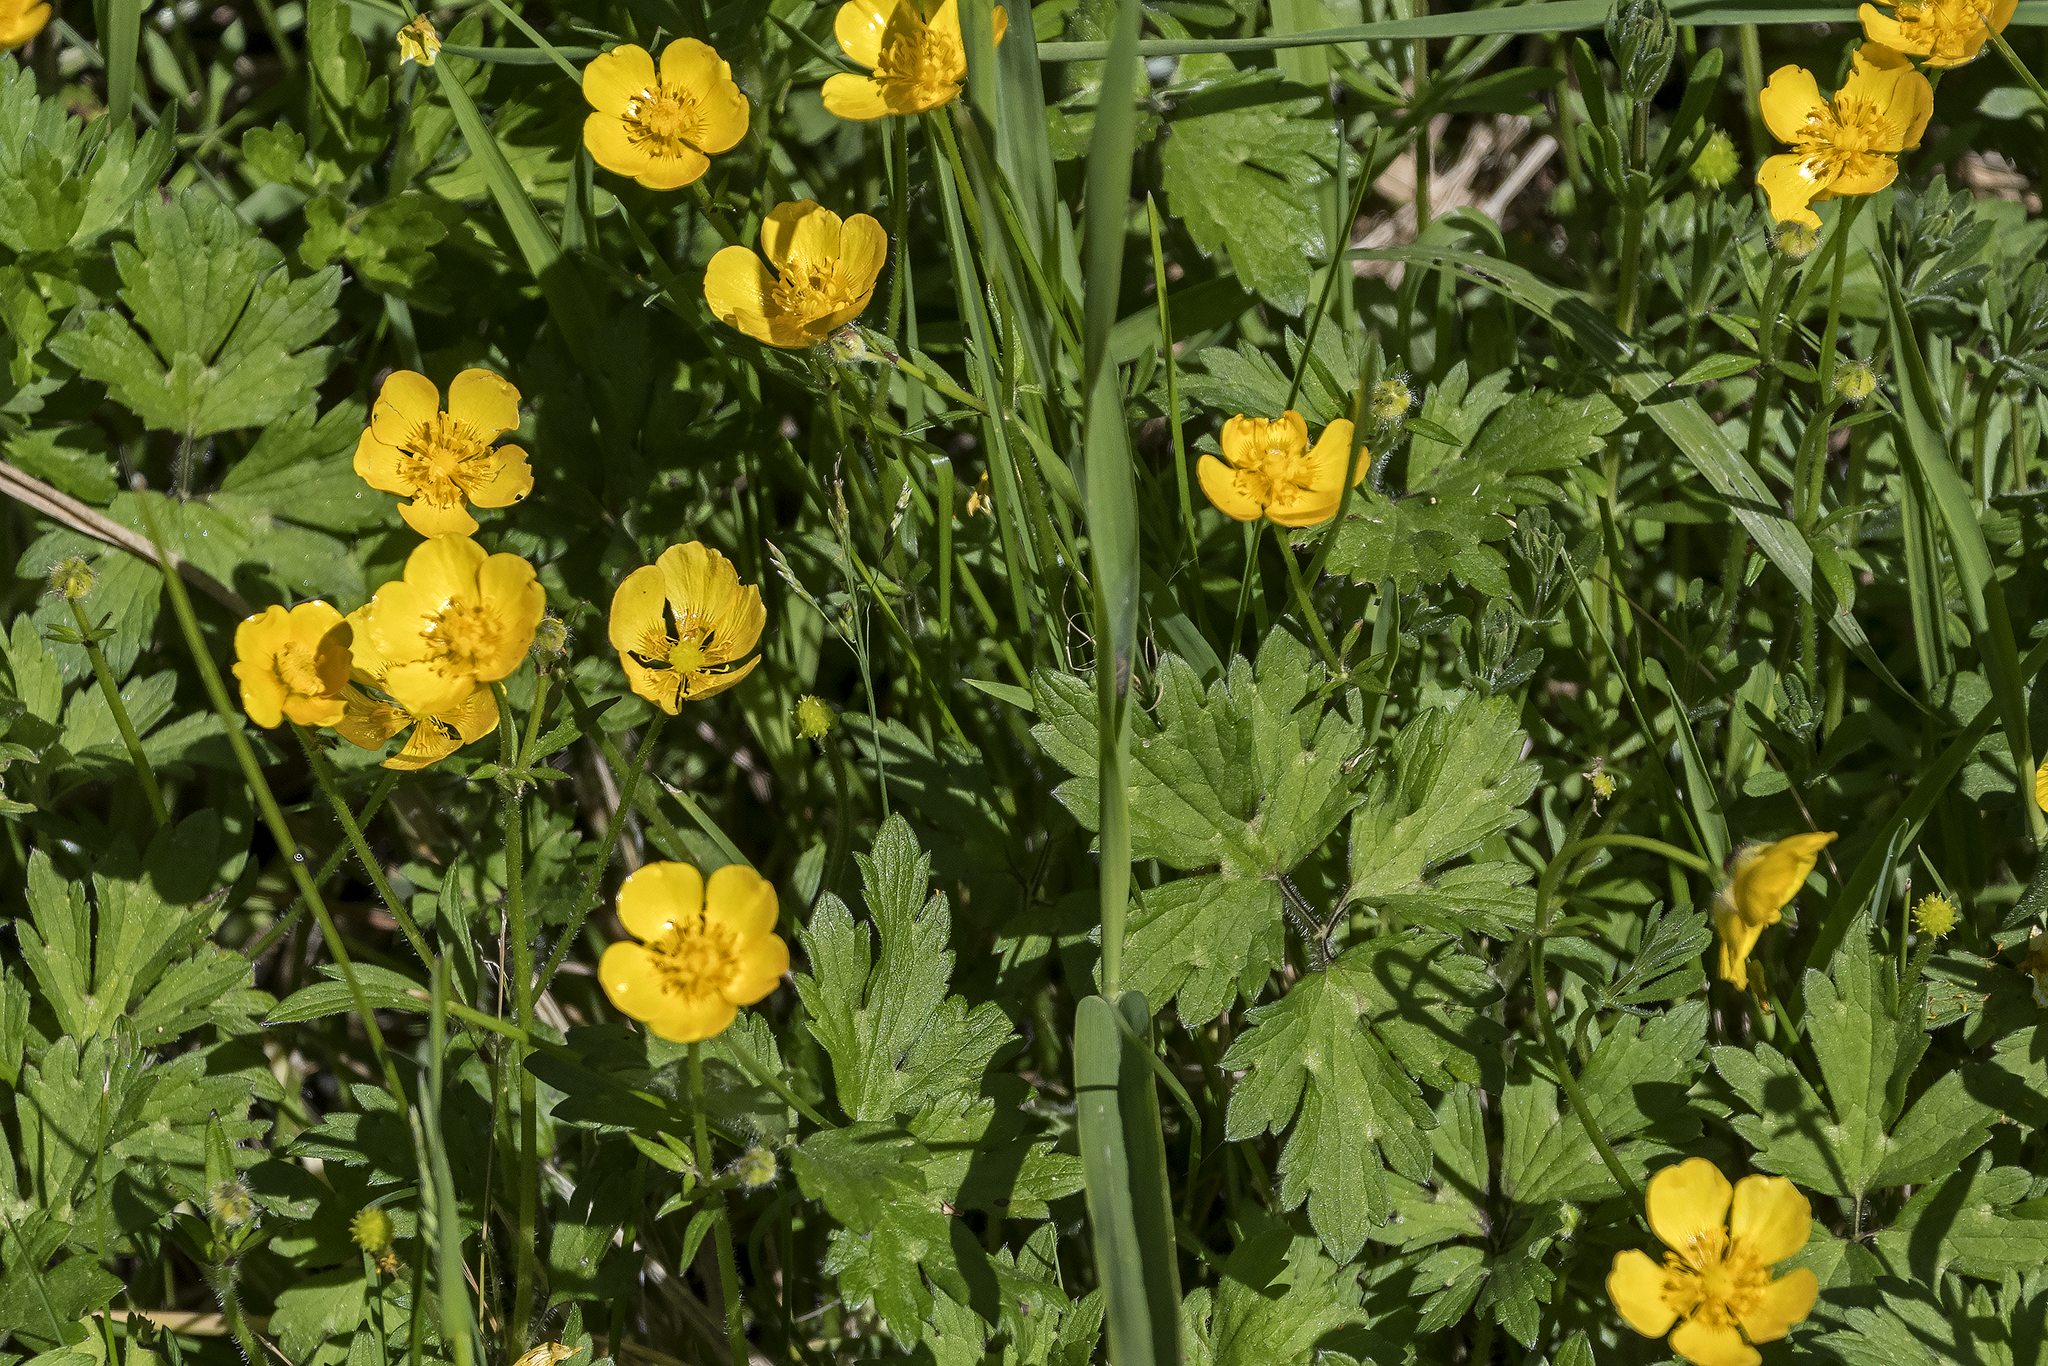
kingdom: Plantae
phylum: Tracheophyta
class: Magnoliopsida
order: Ranunculales
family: Ranunculaceae
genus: Ranunculus
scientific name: Ranunculus repens
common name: Creeping buttercup
